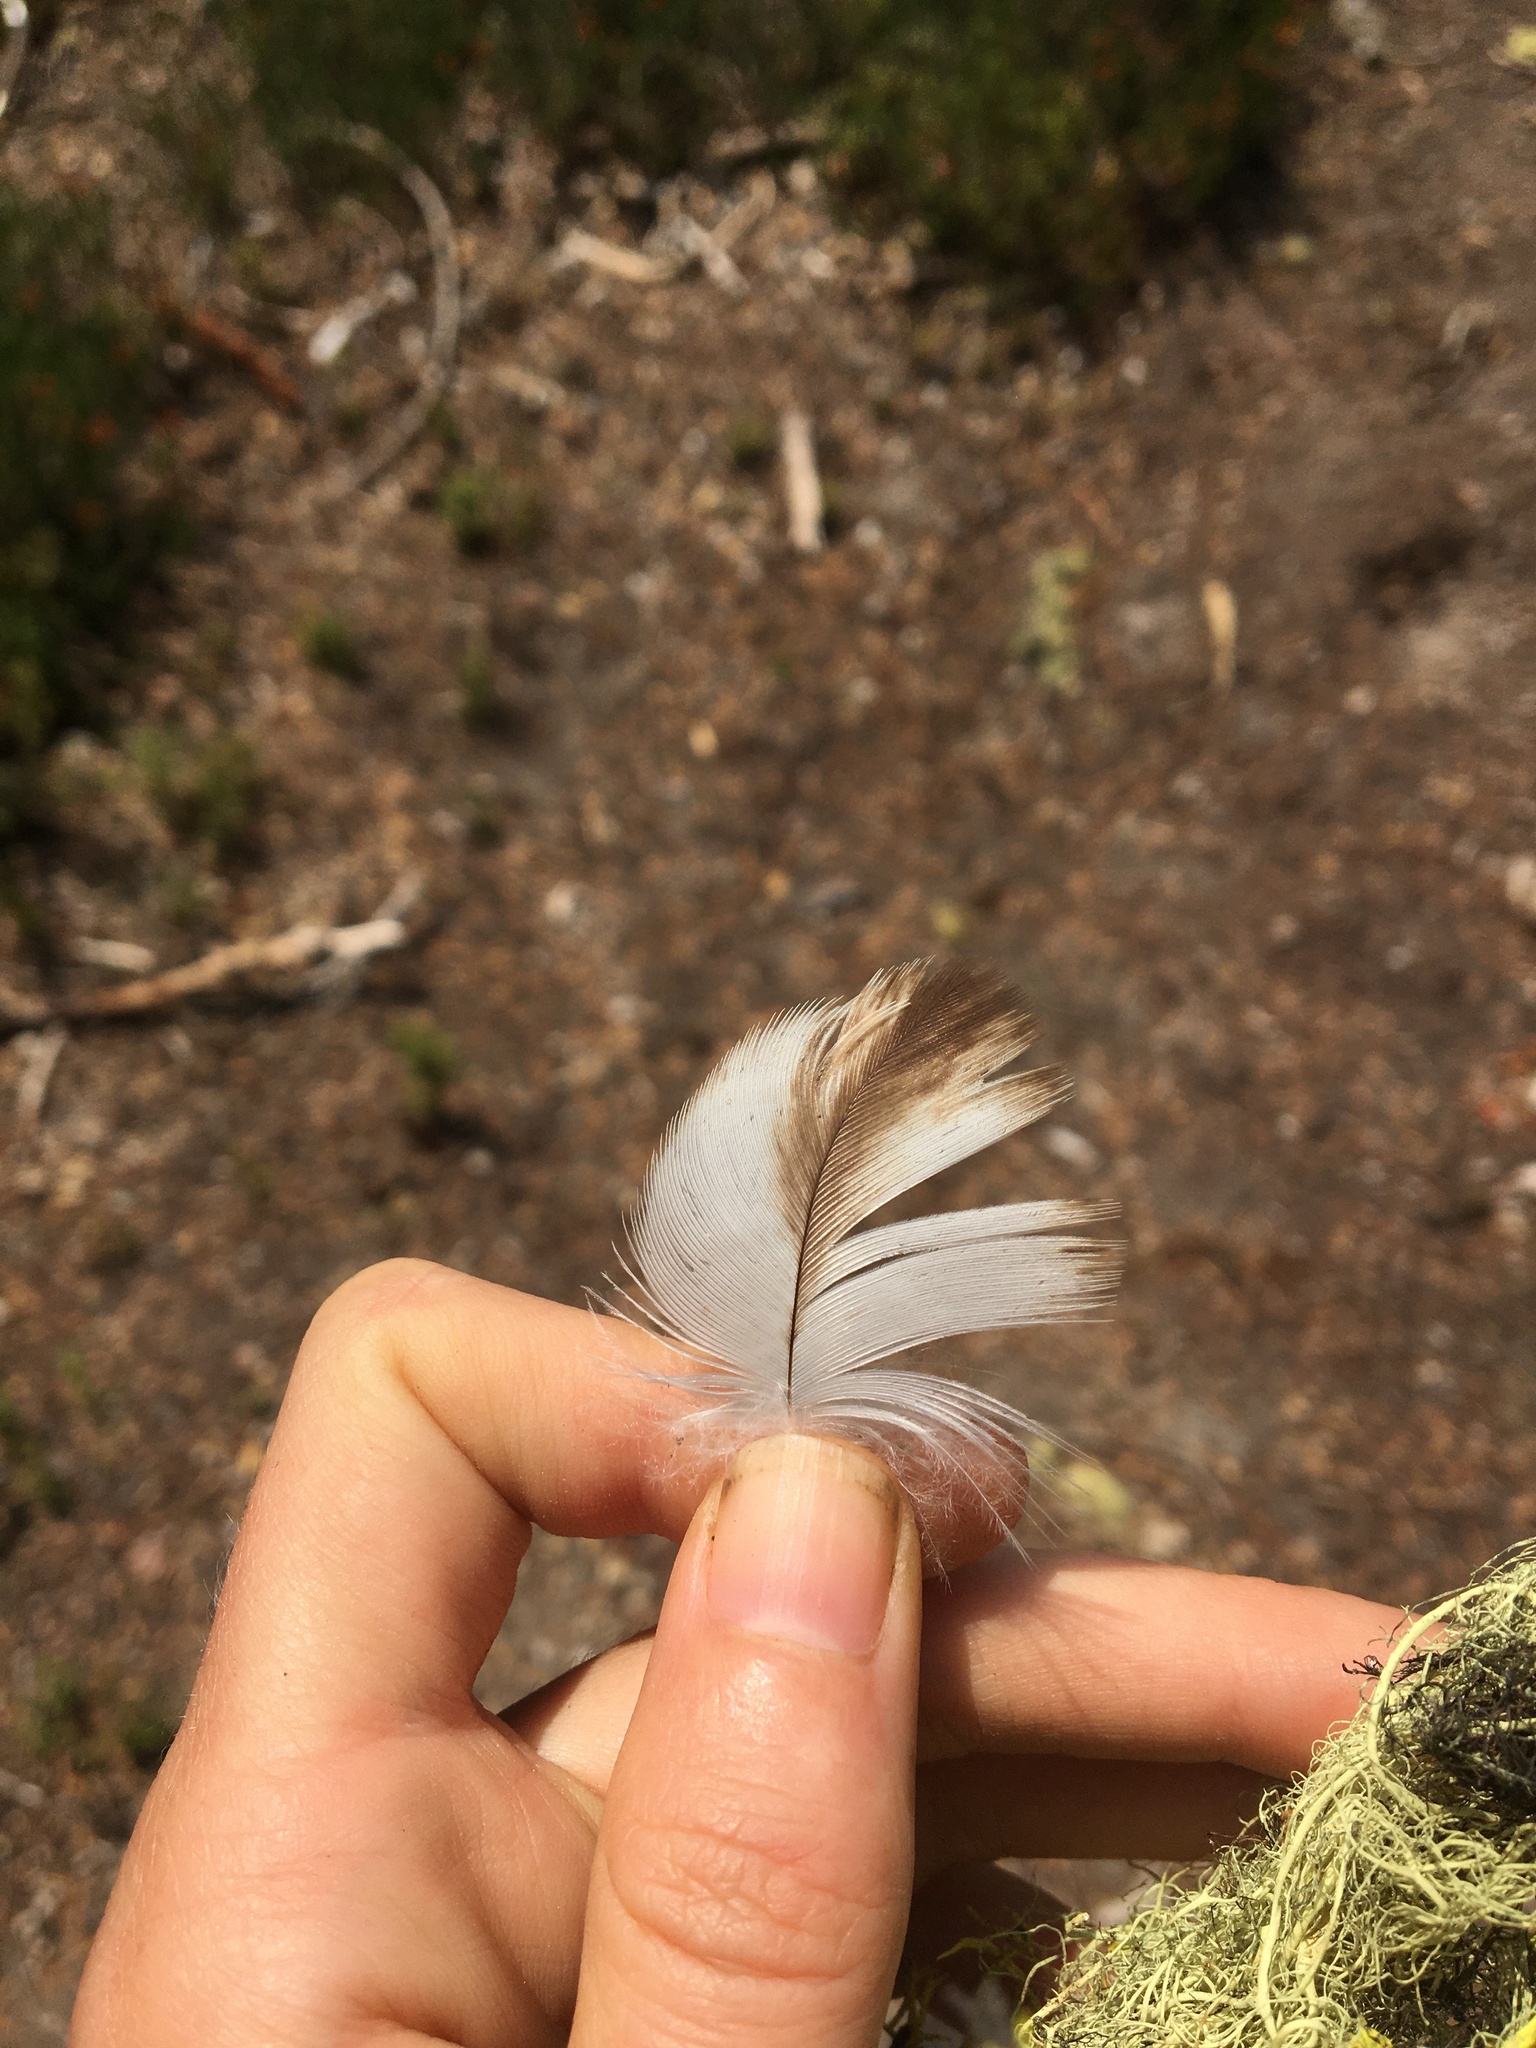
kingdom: Animalia
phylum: Chordata
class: Aves
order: Accipitriformes
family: Accipitridae
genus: Haliaeetus
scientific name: Haliaeetus leucocephalus
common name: Bald eagle
